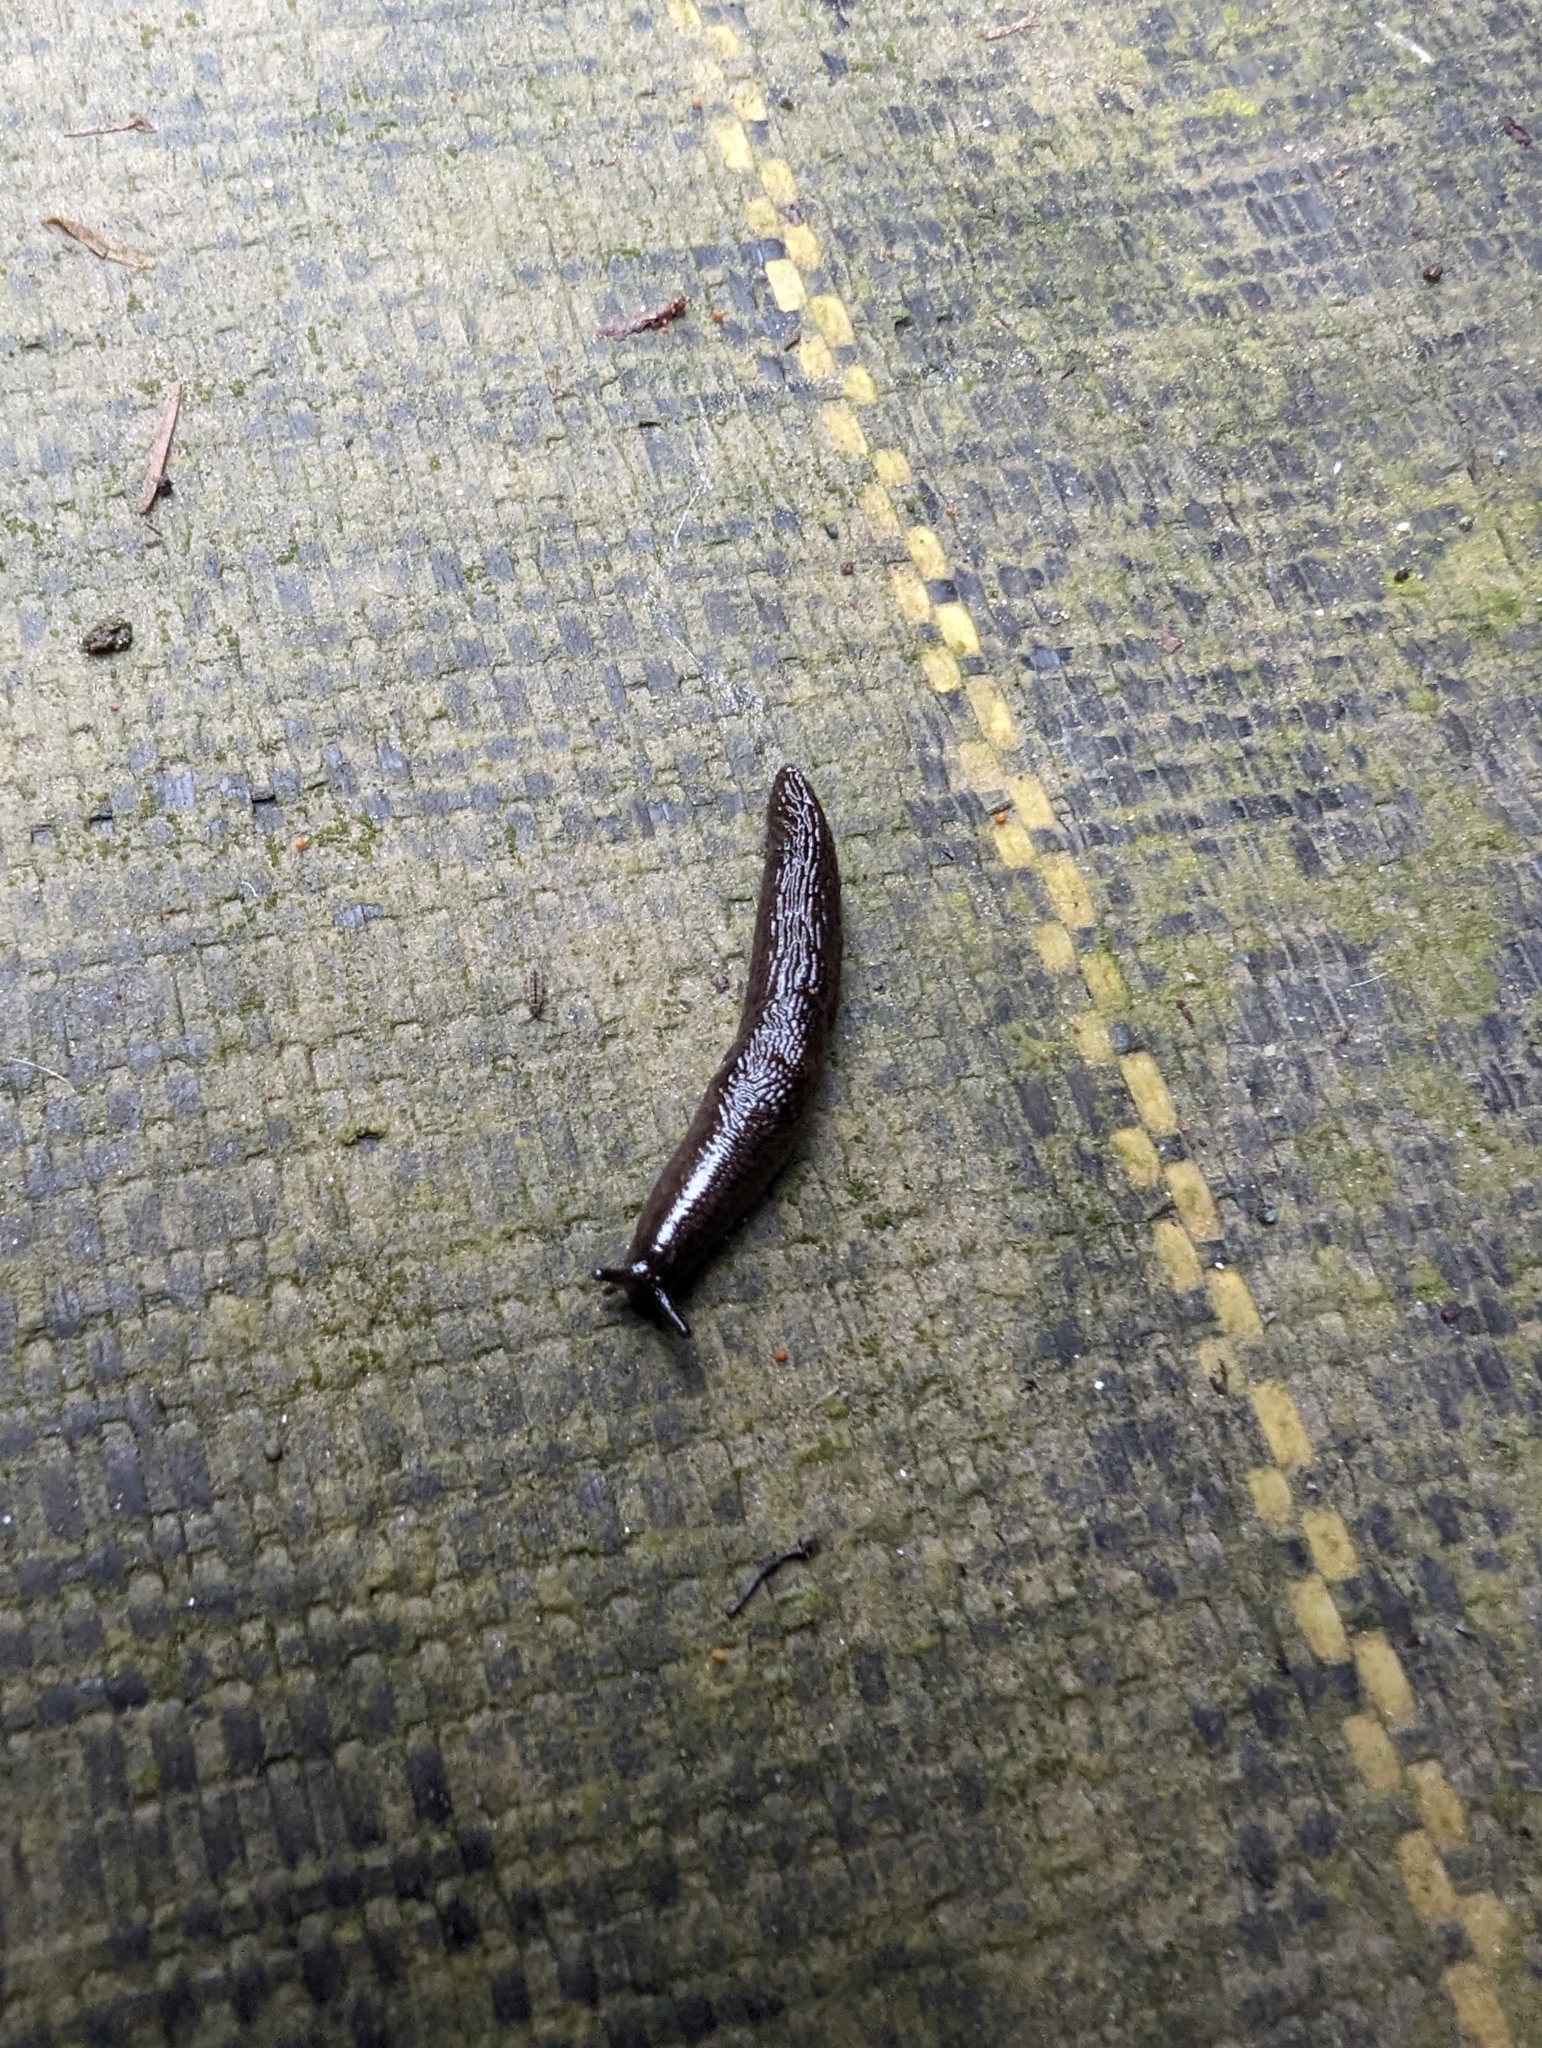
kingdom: Animalia
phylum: Mollusca
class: Gastropoda
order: Stylommatophora
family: Arionidae
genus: Arion
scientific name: Arion
